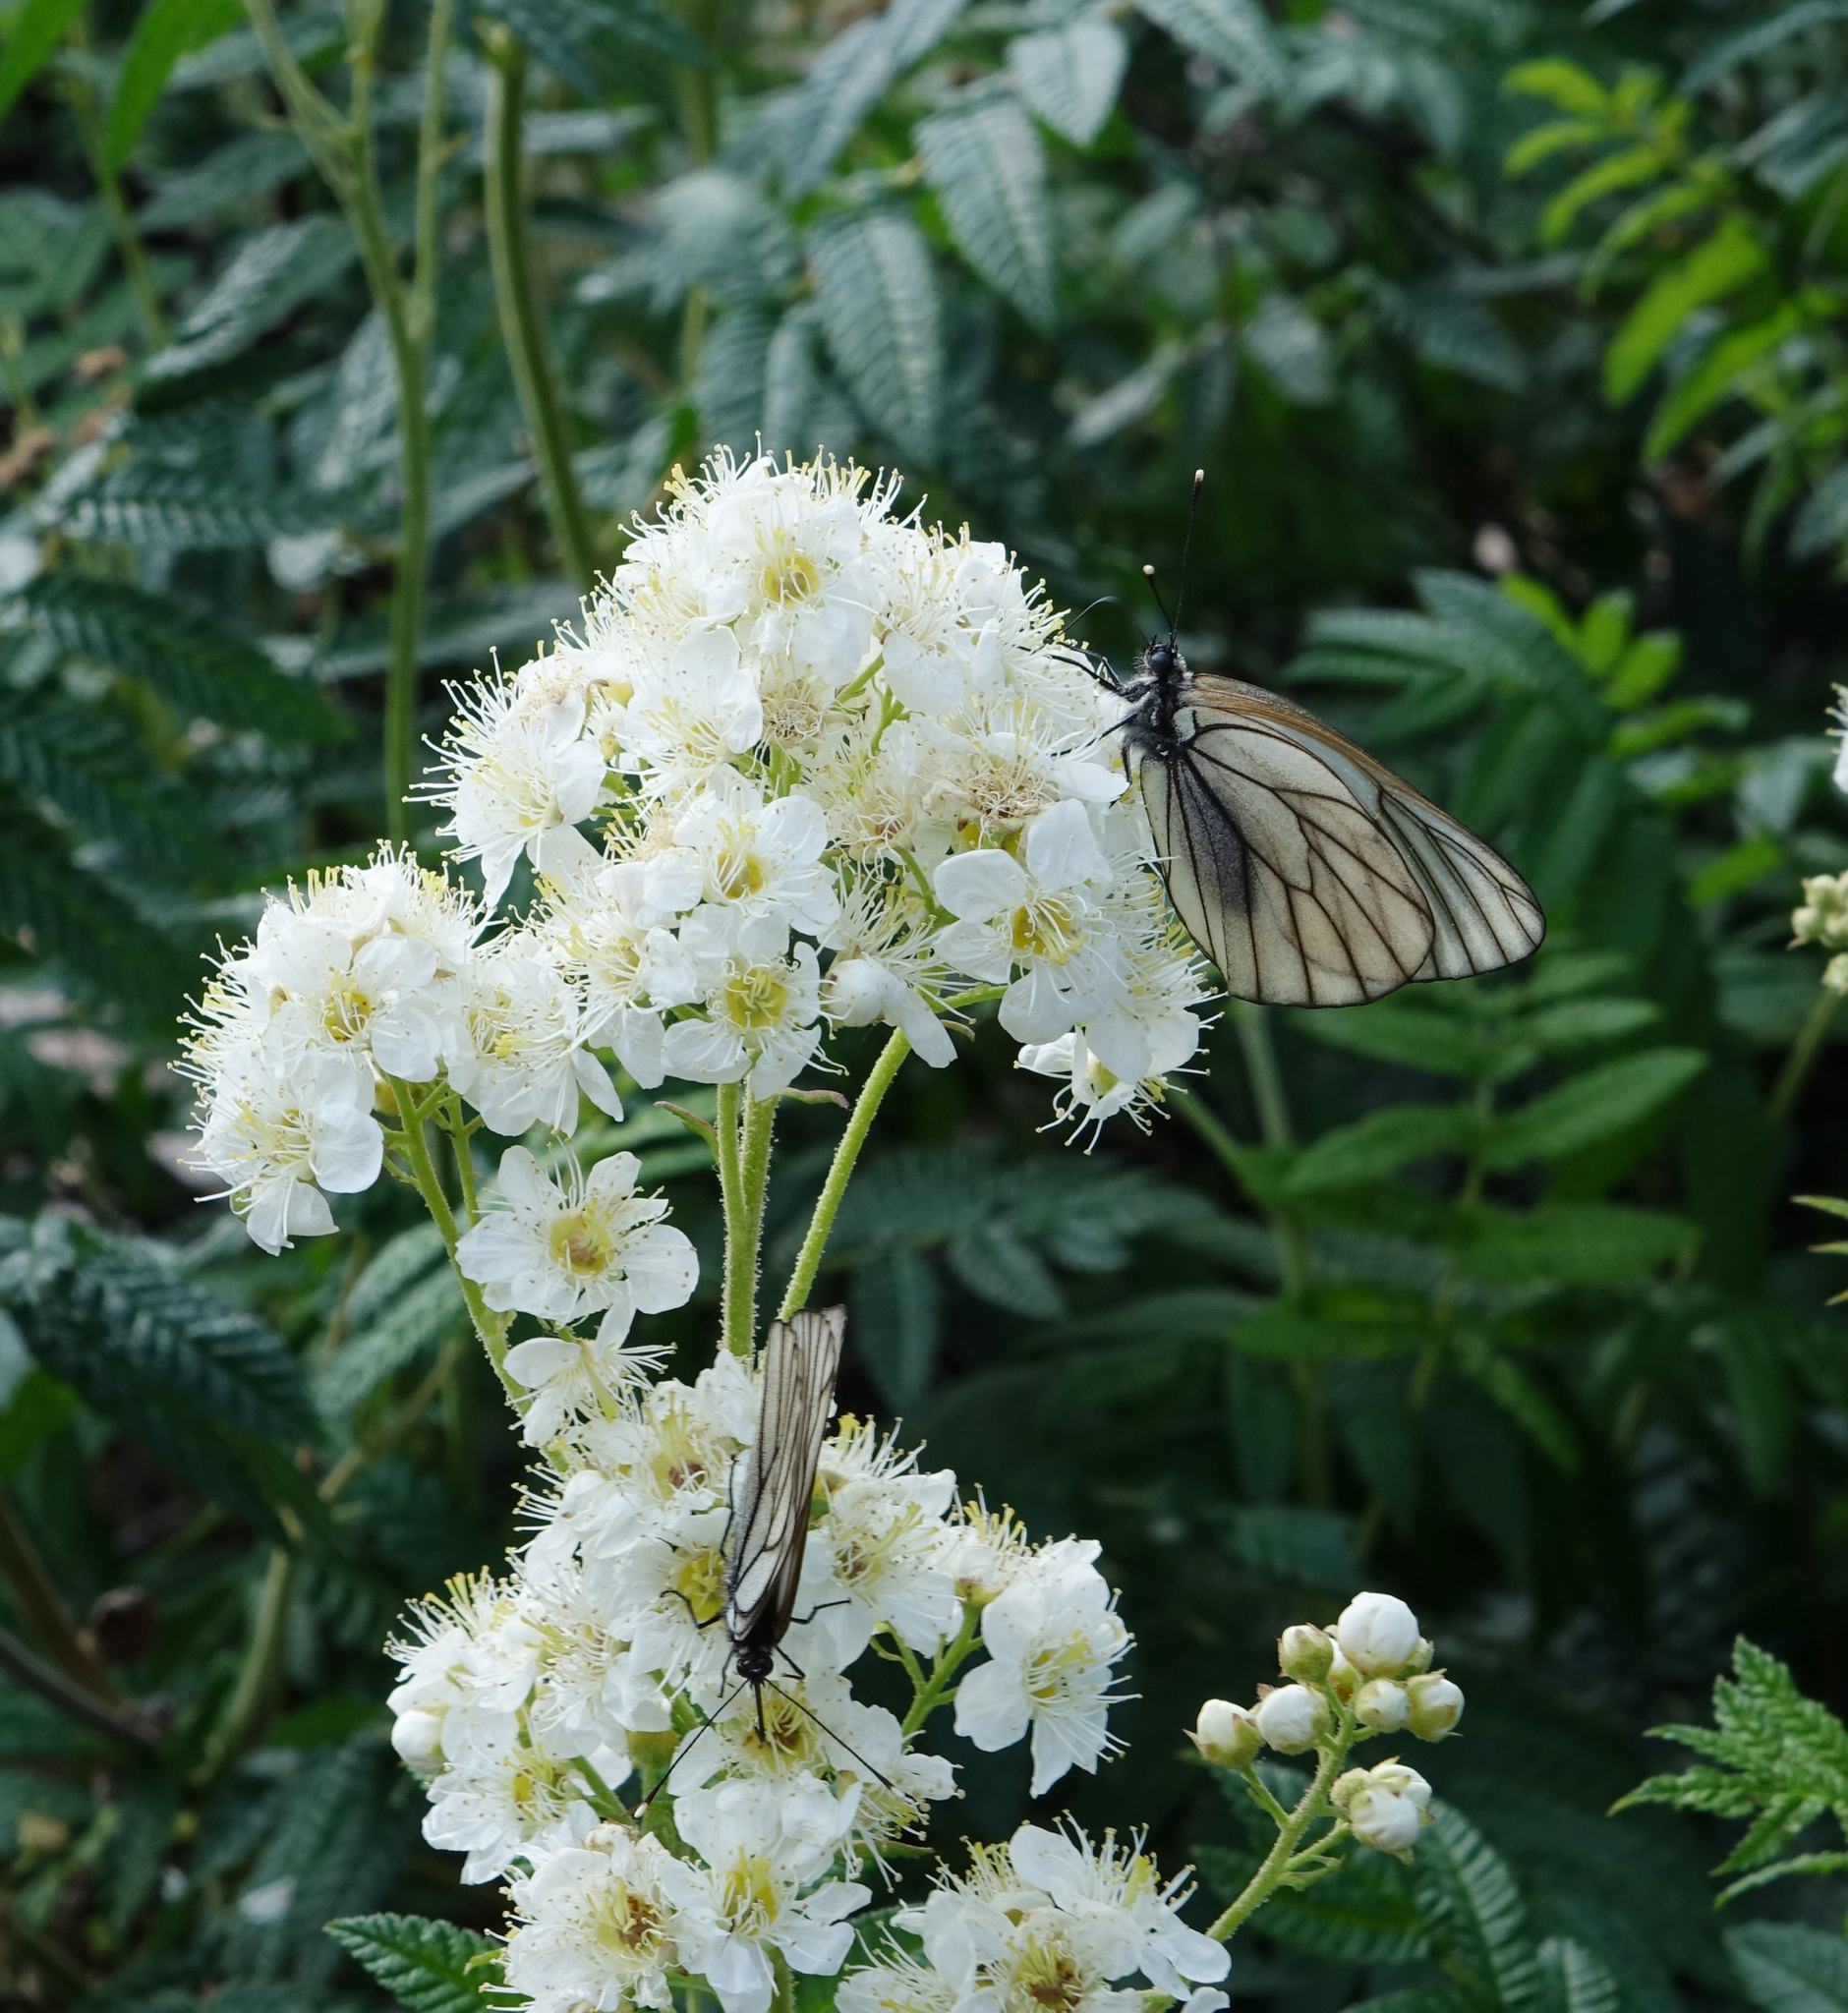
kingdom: Animalia
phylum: Arthropoda
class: Insecta
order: Lepidoptera
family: Pieridae
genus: Aporia
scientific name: Aporia crataegi
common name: Black-veined white
